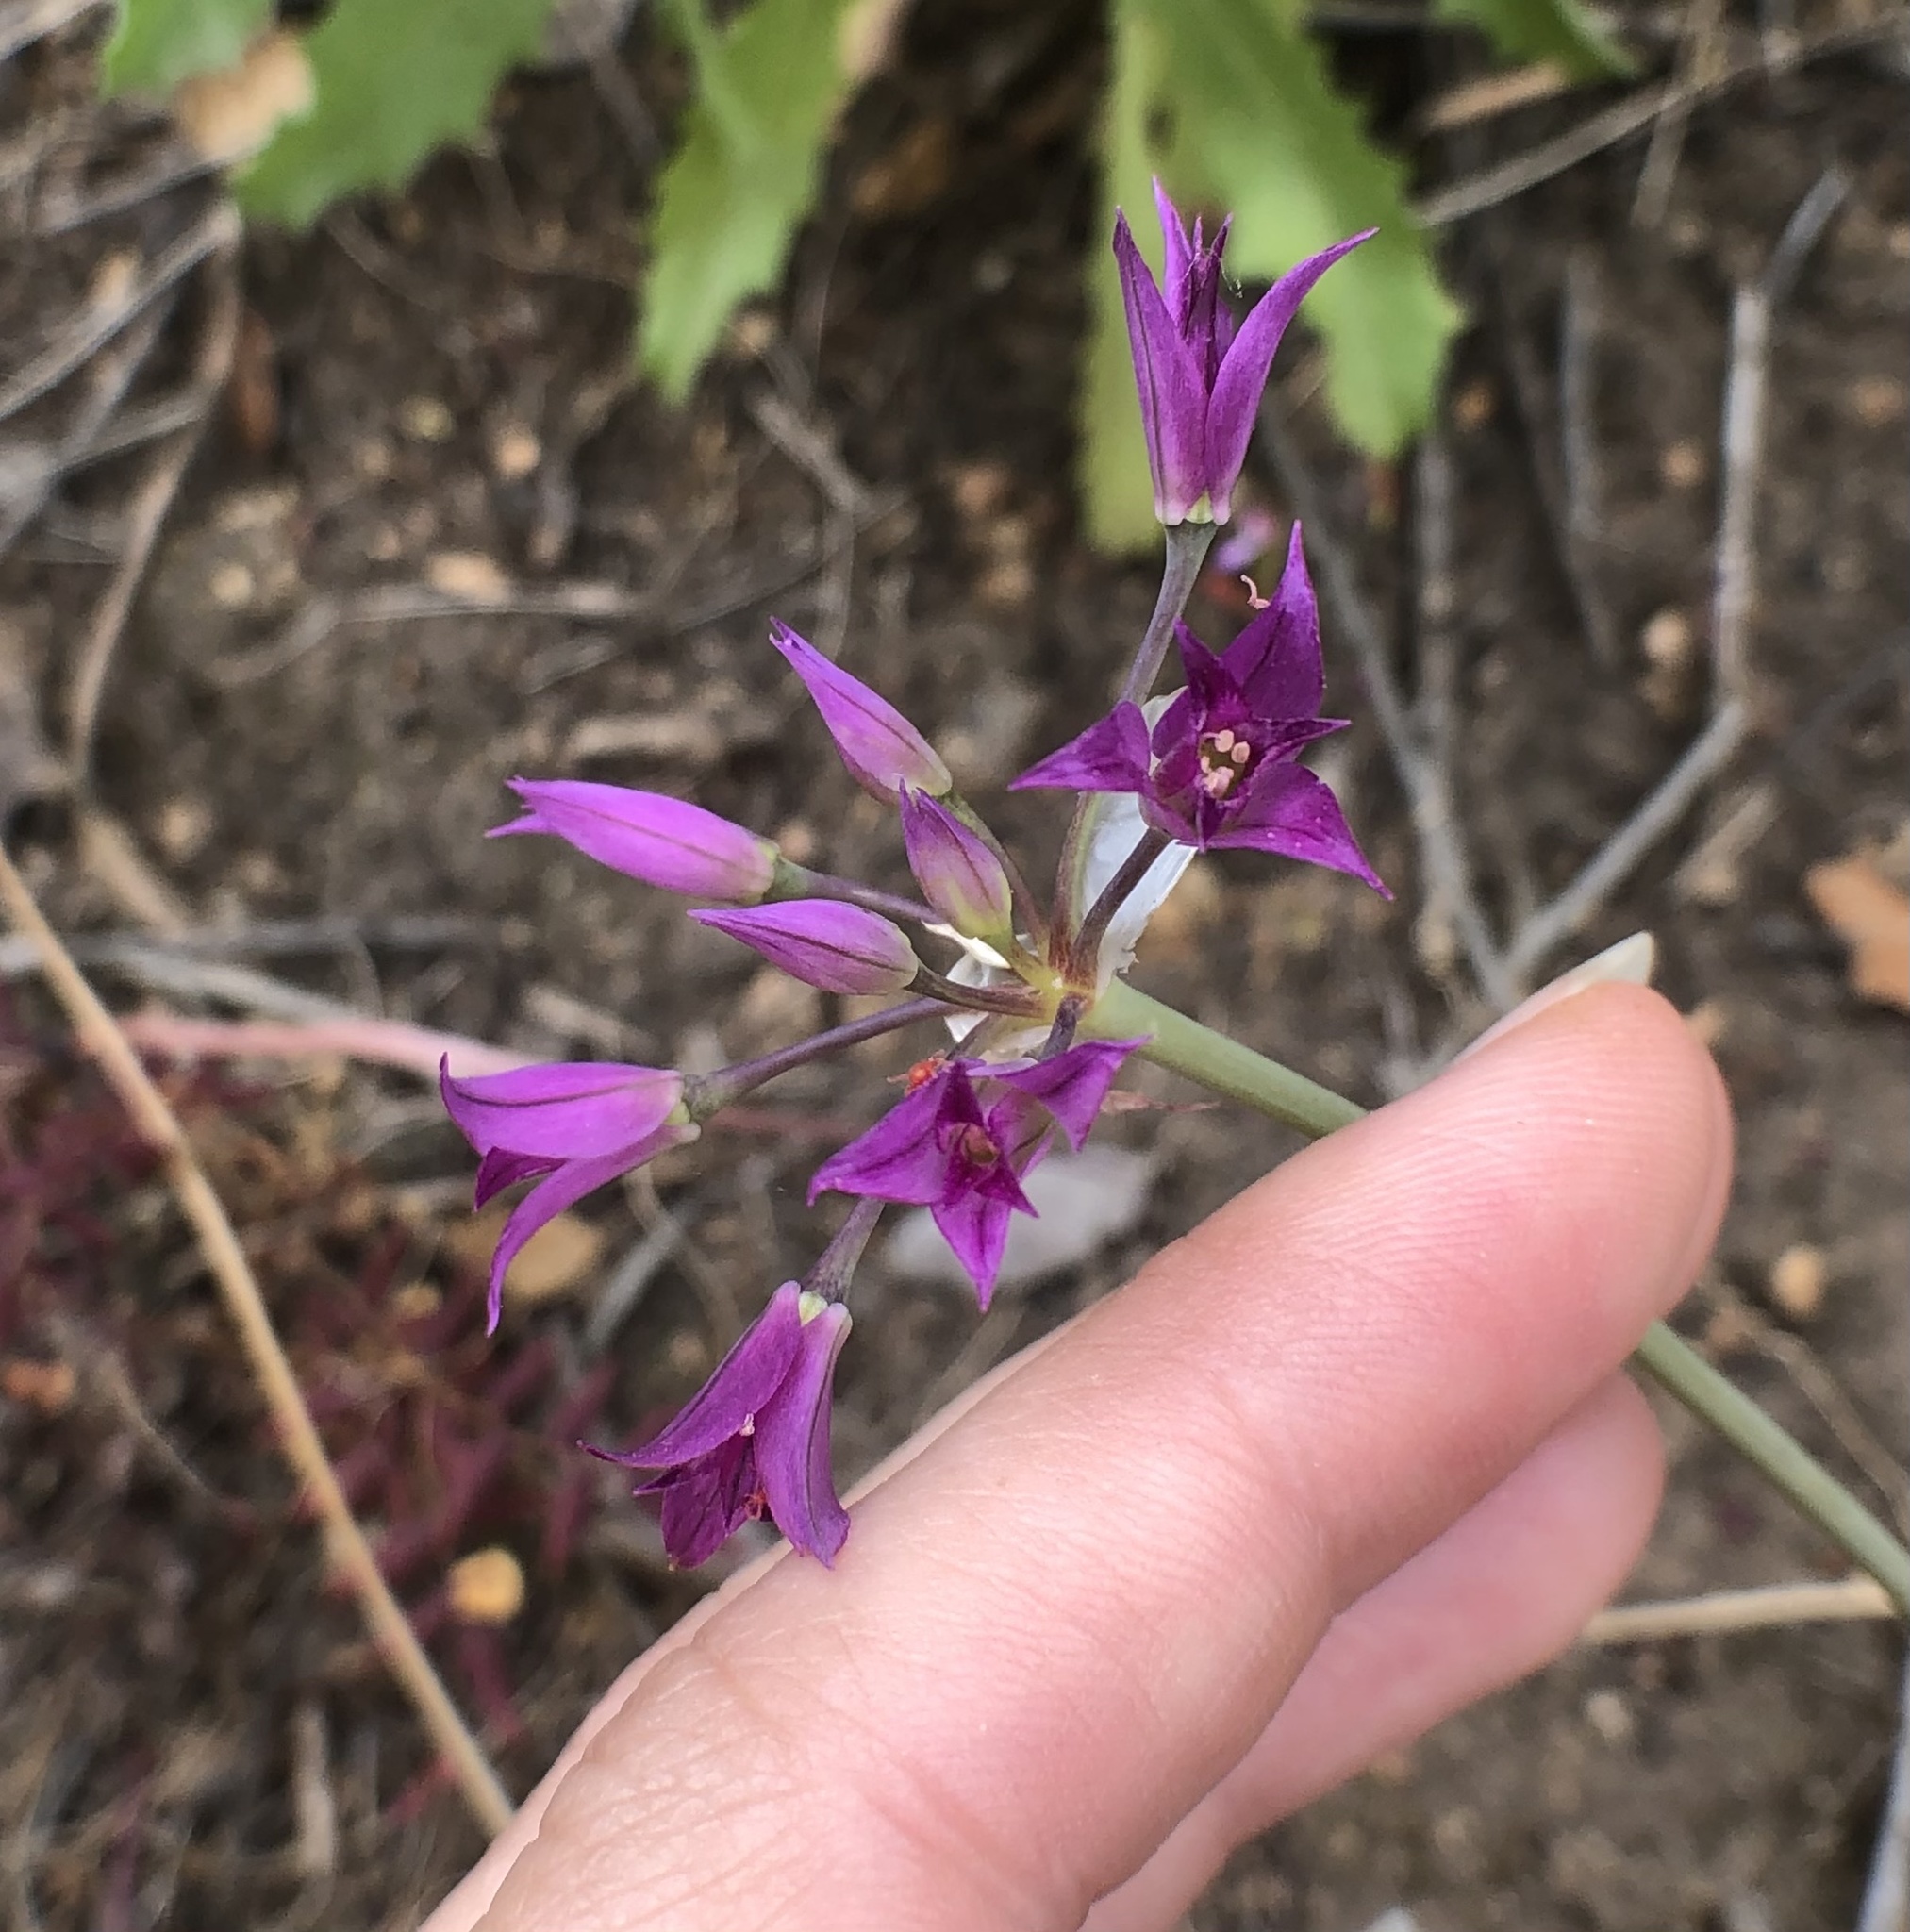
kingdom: Plantae
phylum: Tracheophyta
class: Liliopsida
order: Asparagales
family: Amaryllidaceae
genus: Allium
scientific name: Allium peninsulare
